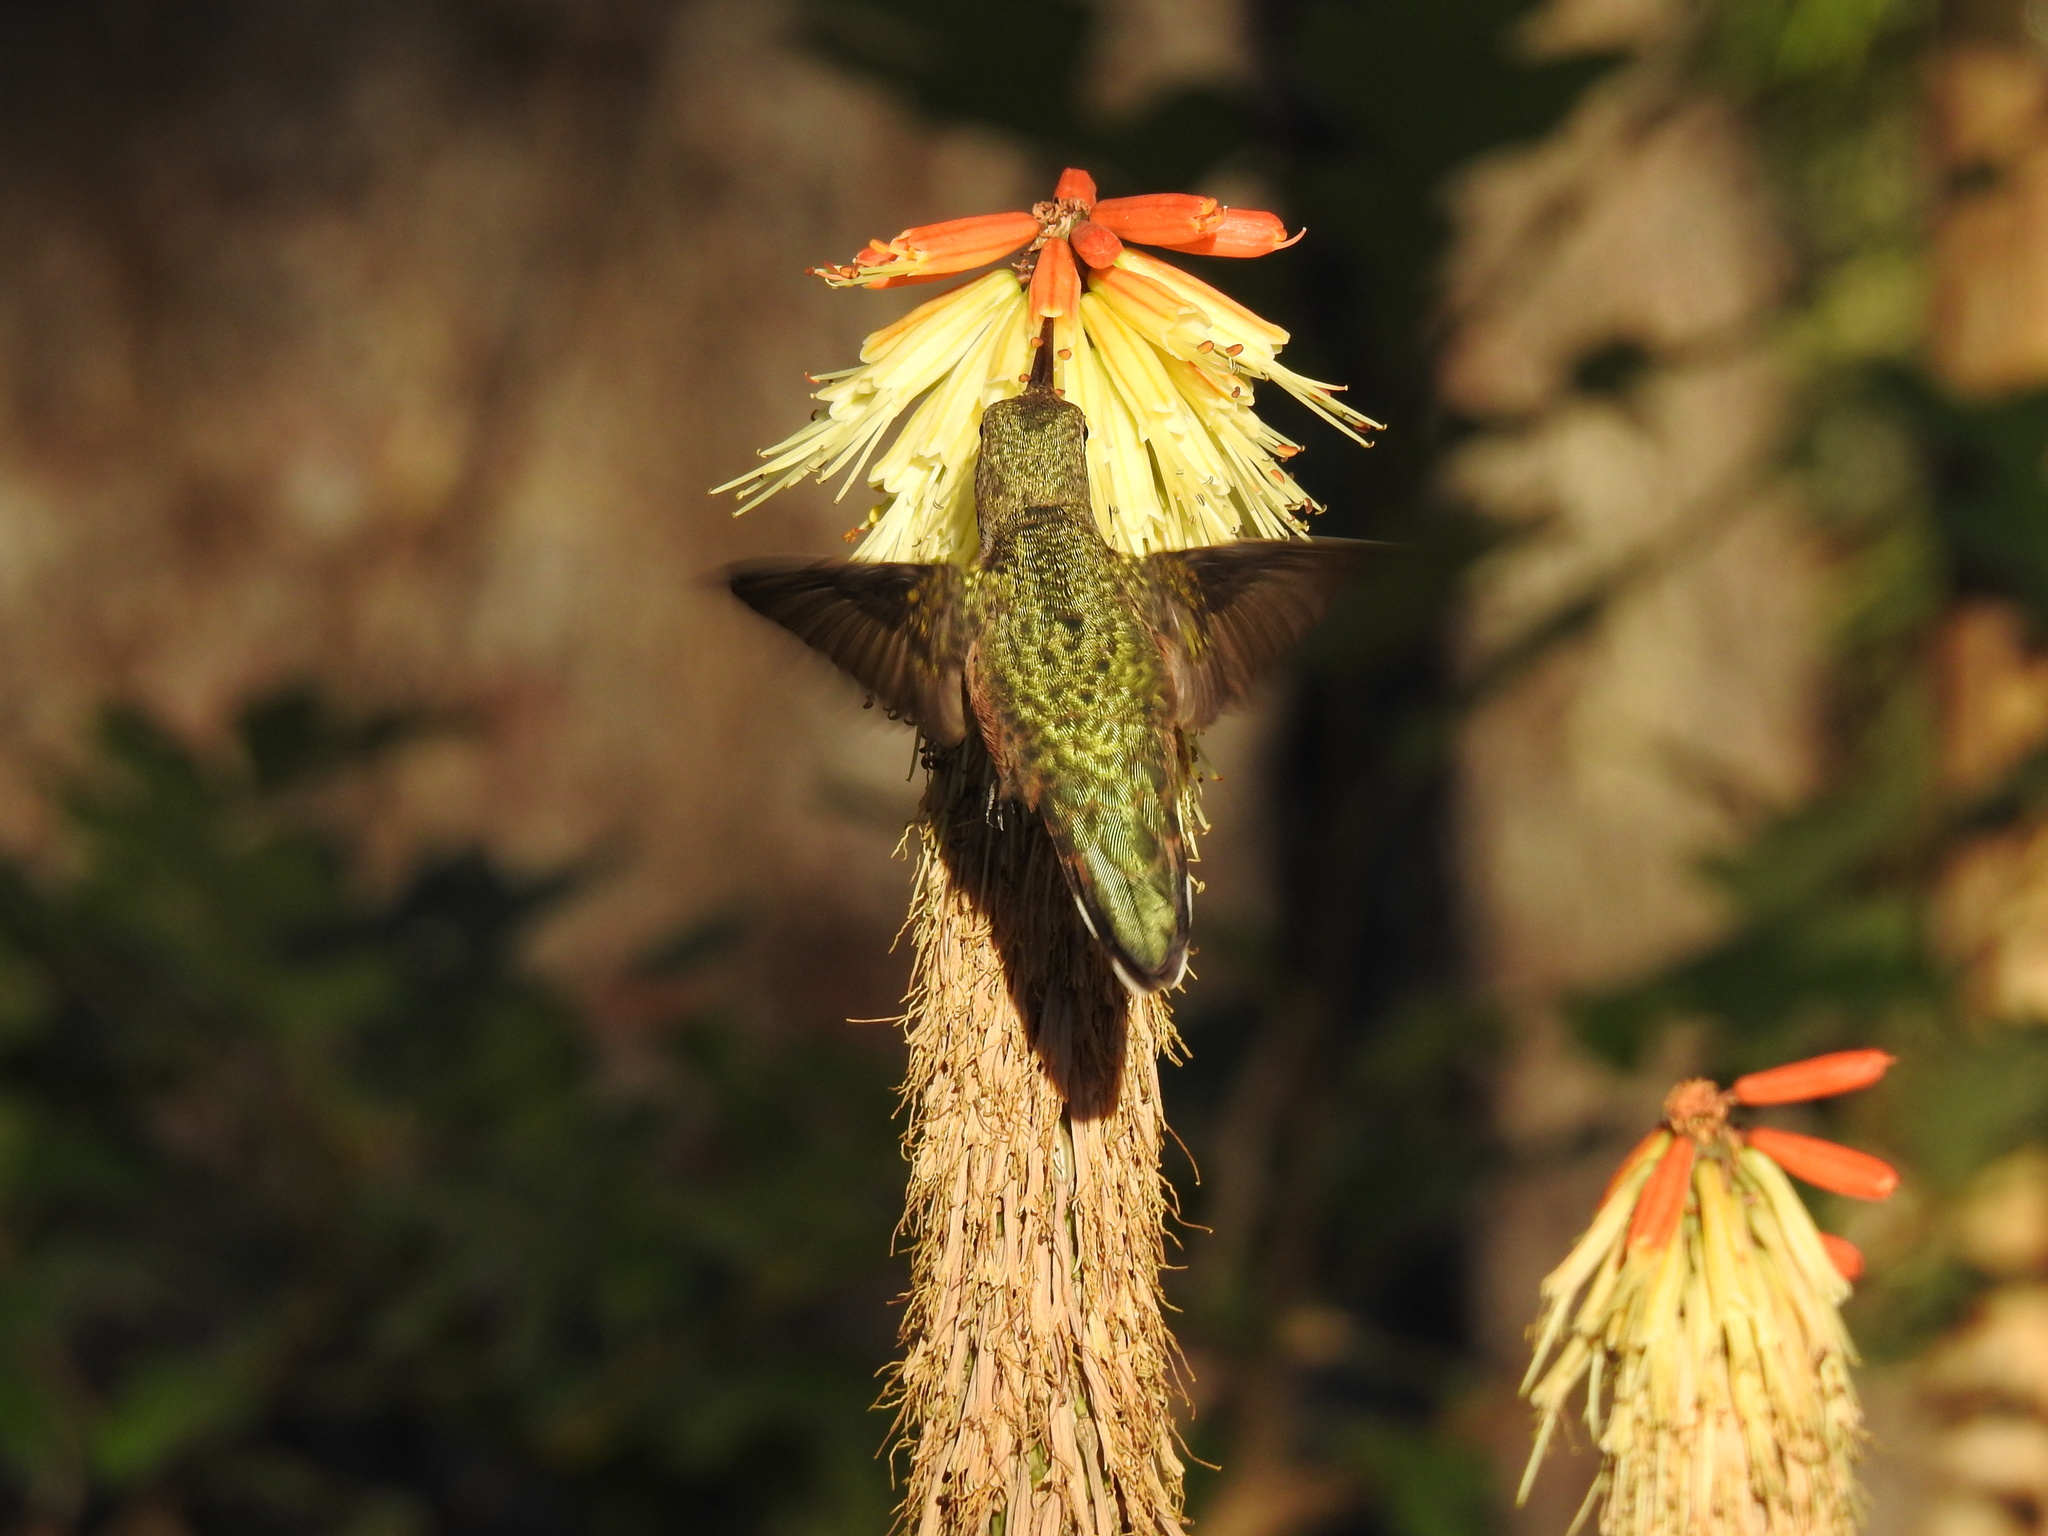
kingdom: Animalia
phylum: Chordata
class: Aves
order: Apodiformes
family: Trochilidae
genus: Selasphorus
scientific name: Selasphorus platycercus
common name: Broad-tailed hummingbird
